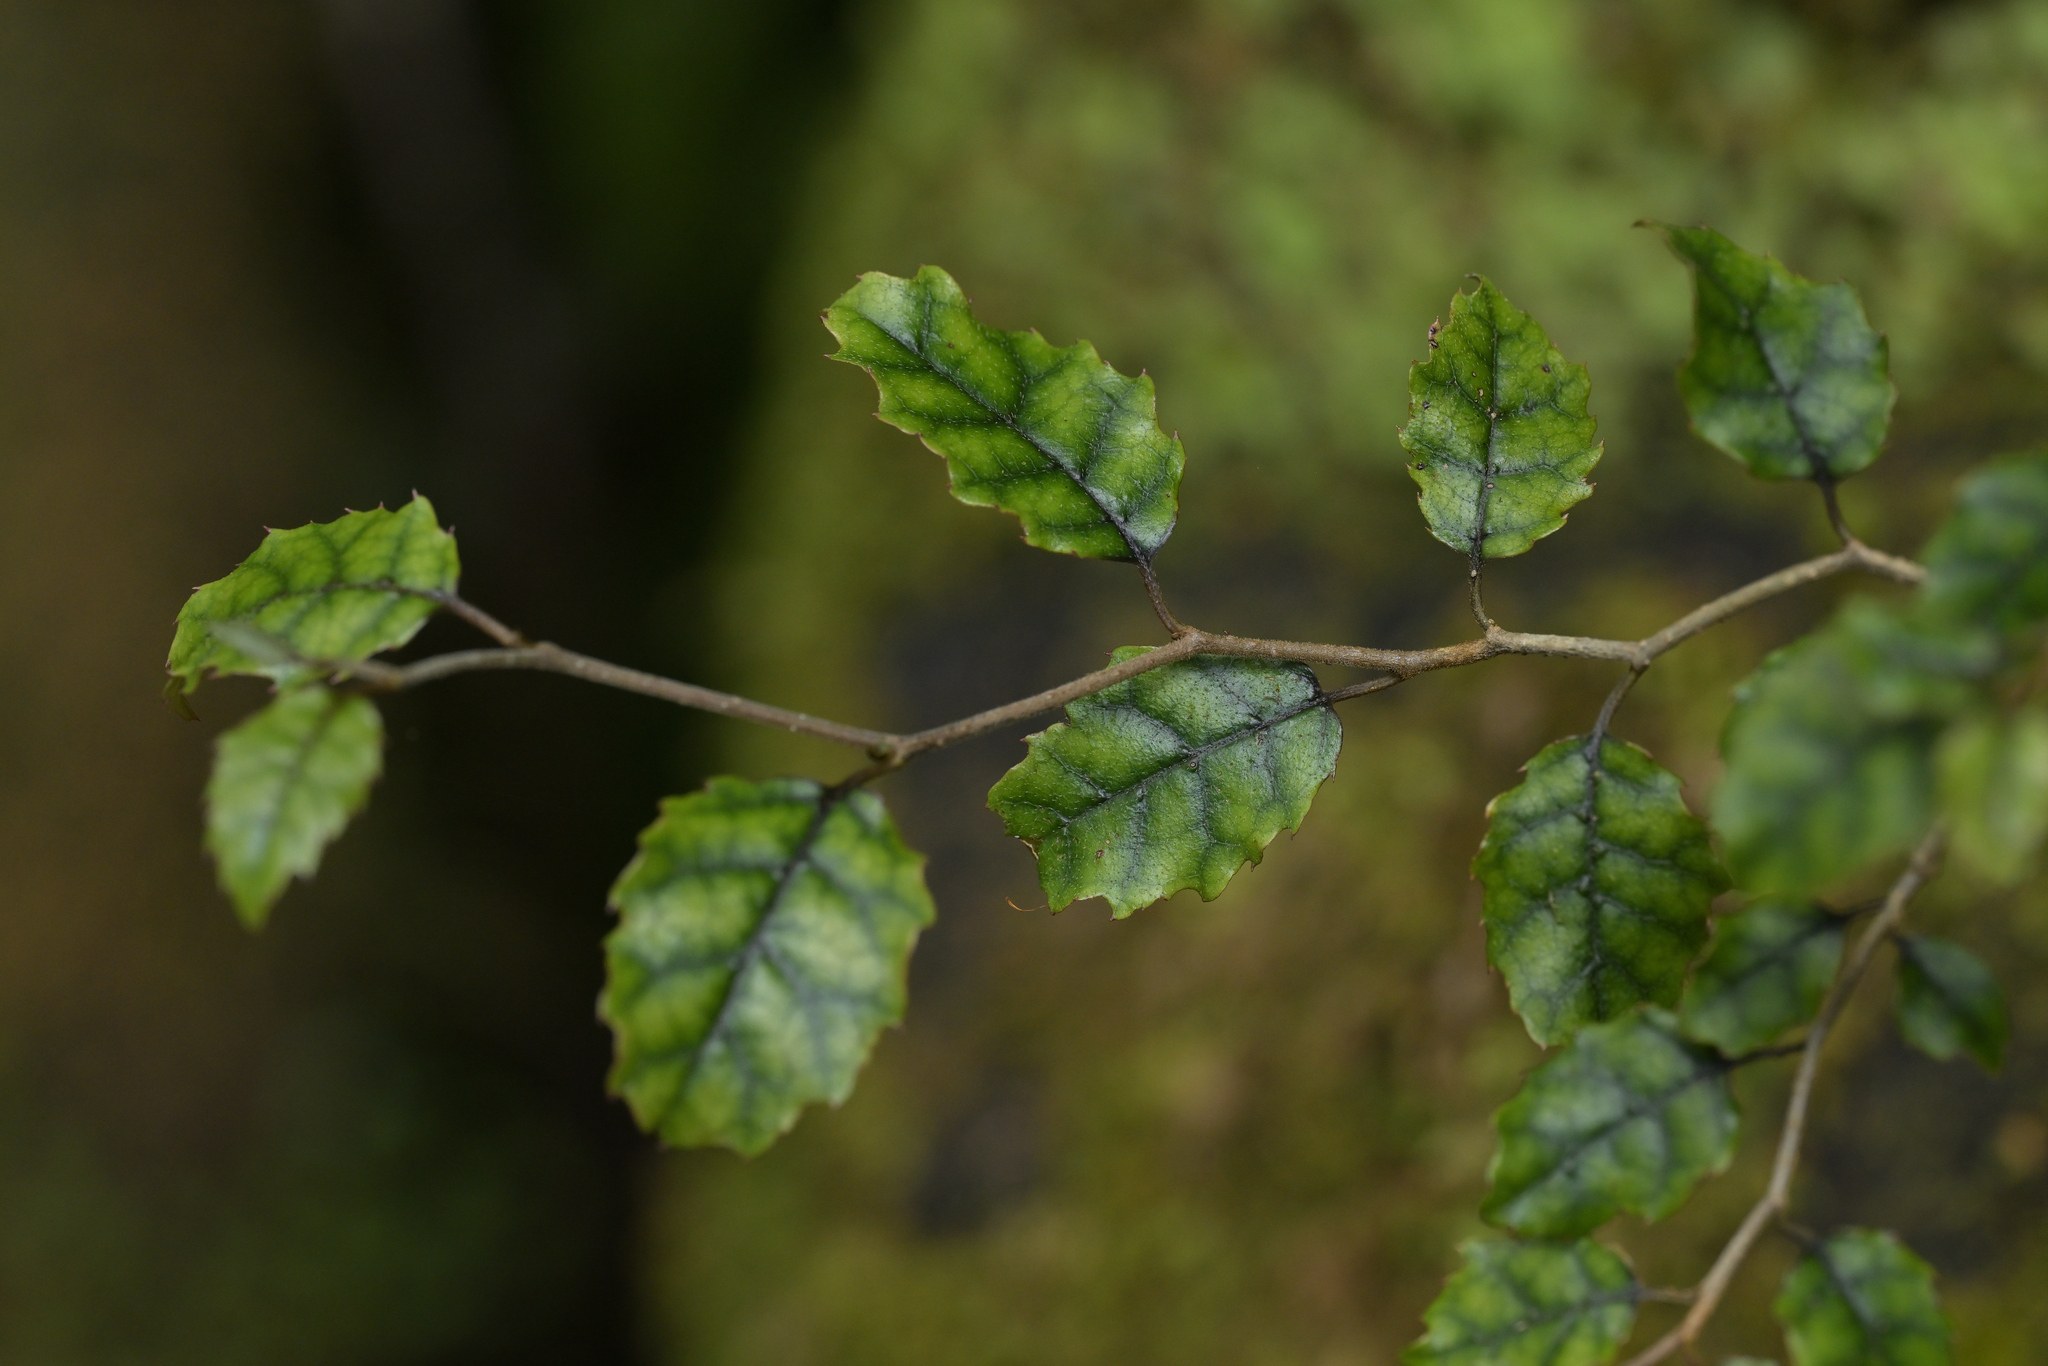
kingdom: Plantae
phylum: Tracheophyta
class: Magnoliopsida
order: Asterales
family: Rousseaceae
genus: Carpodetus
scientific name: Carpodetus serratus
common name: White mapau
